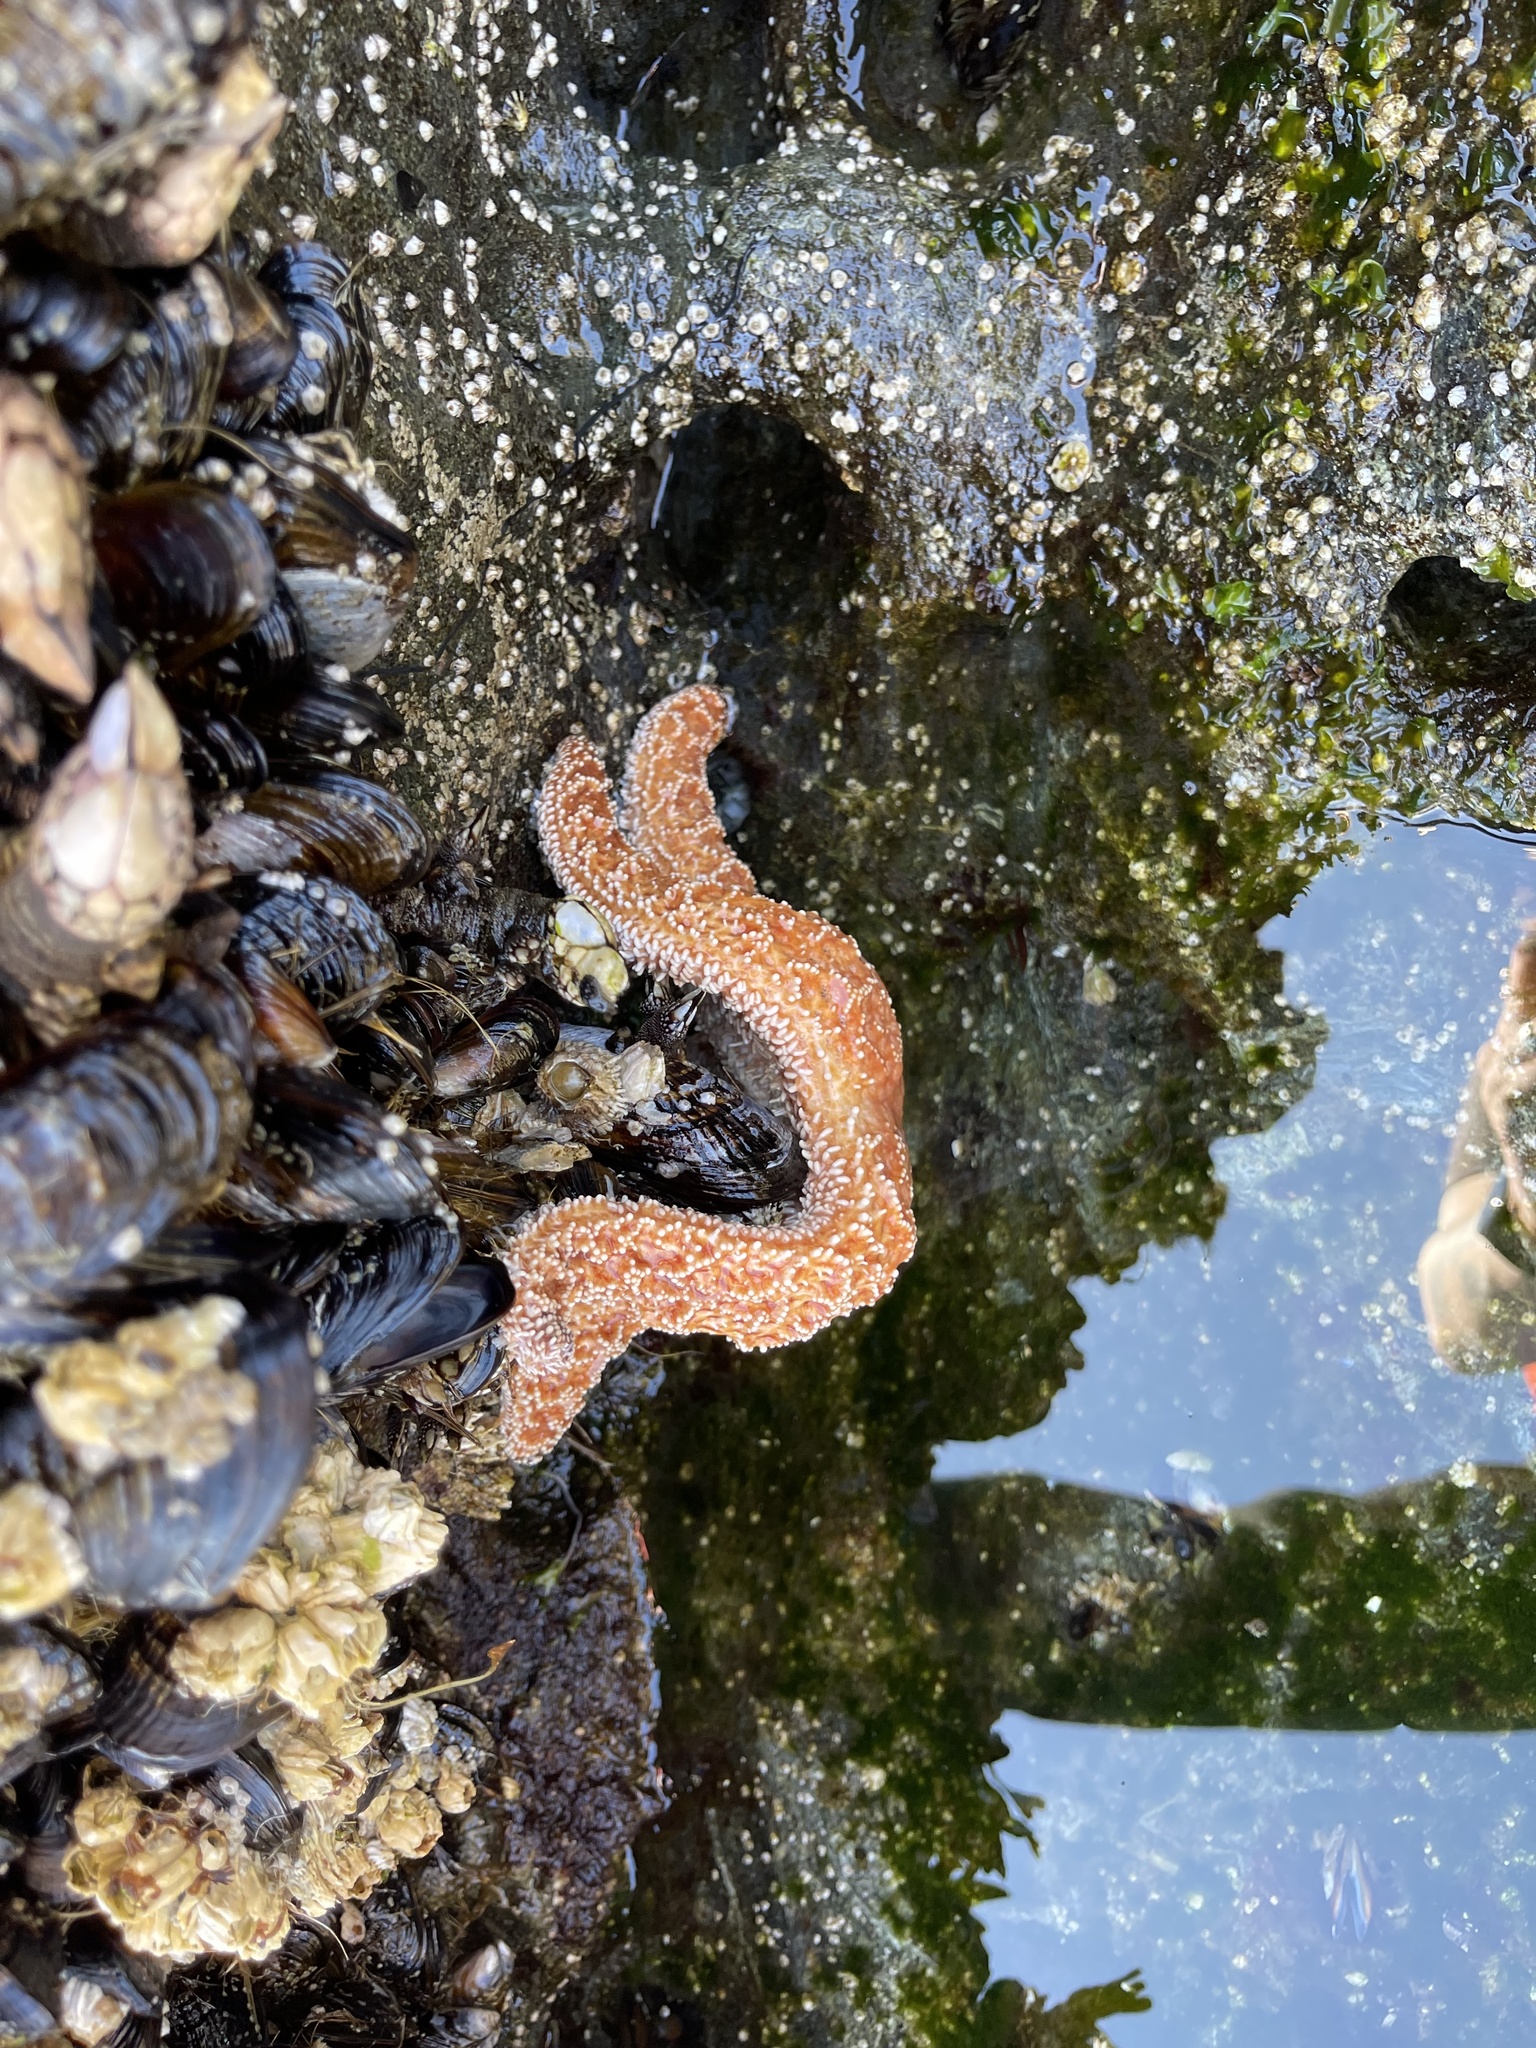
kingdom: Animalia
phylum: Echinodermata
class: Asteroidea
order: Forcipulatida
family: Asteriidae
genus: Pisaster
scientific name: Pisaster ochraceus
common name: Ochre stars
